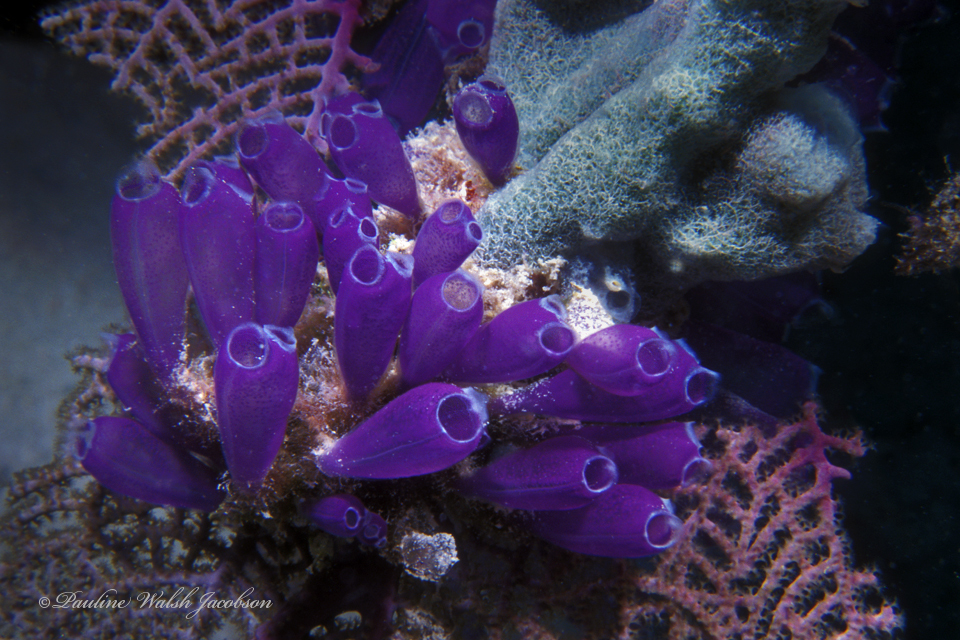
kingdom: Animalia
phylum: Chordata
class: Ascidiacea
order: Aplousobranchia
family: Clavelinidae
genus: Clavelina
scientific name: Clavelina puertosecensis
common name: Blue bell tunicate
